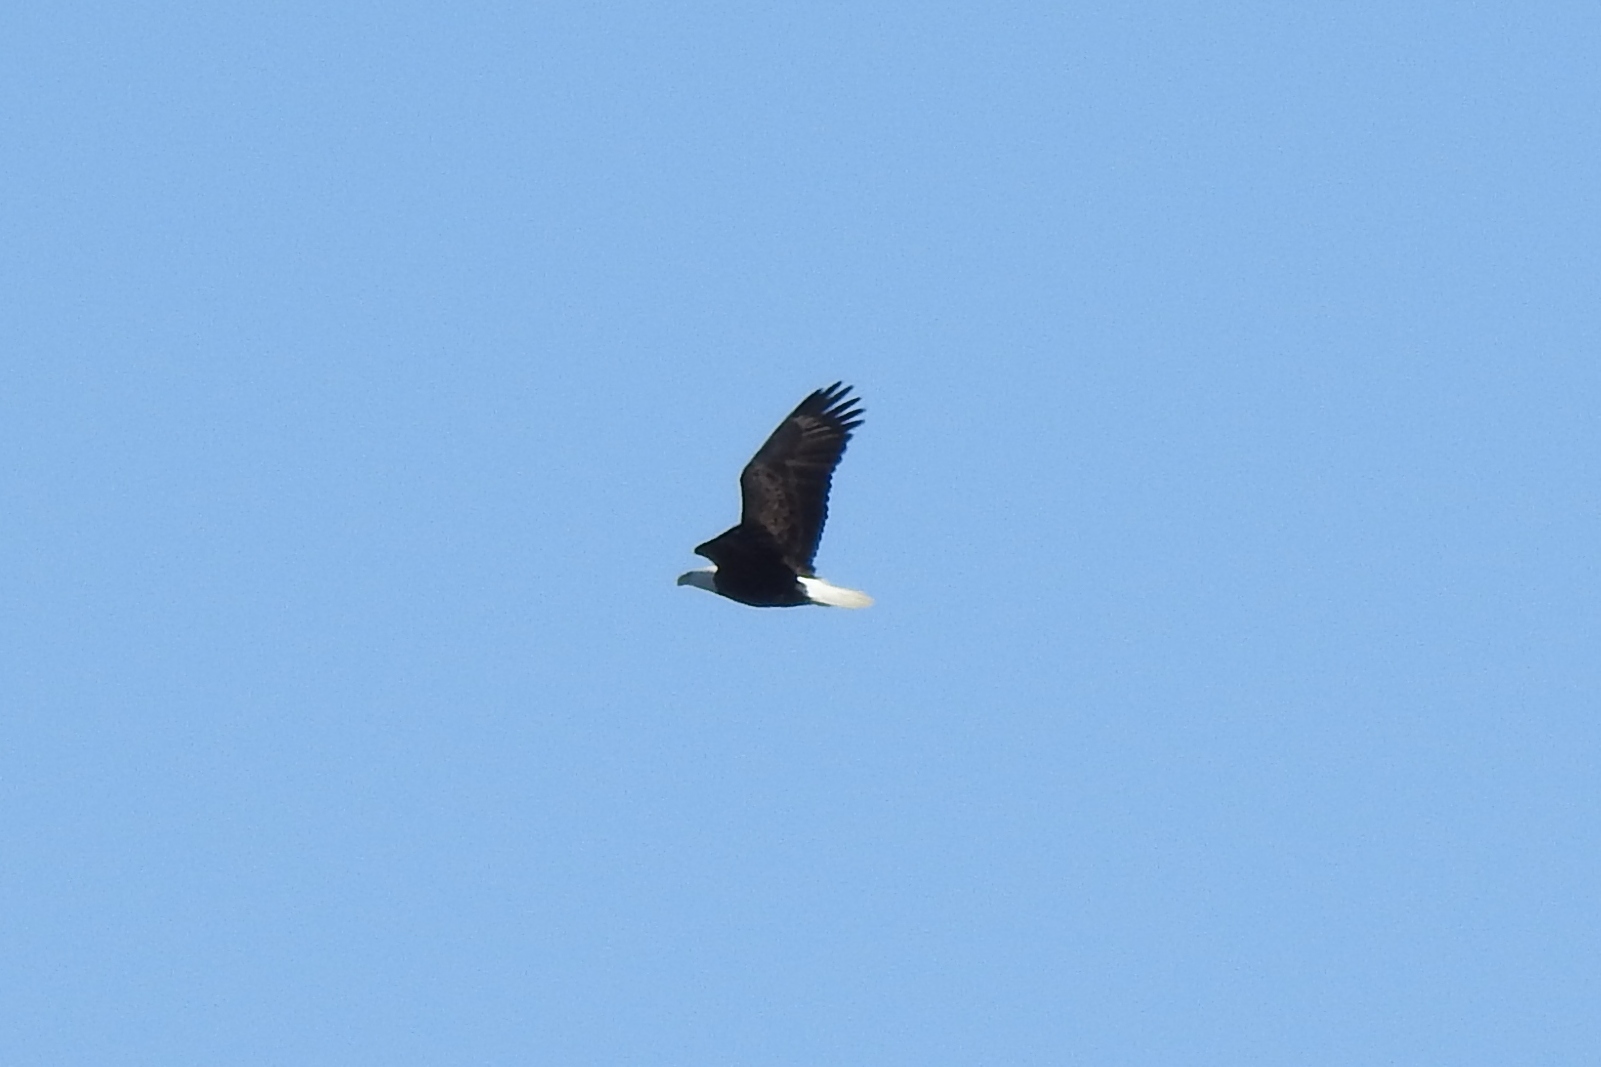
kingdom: Animalia
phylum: Chordata
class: Aves
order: Accipitriformes
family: Accipitridae
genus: Haliaeetus
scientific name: Haliaeetus leucocephalus
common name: Bald eagle
